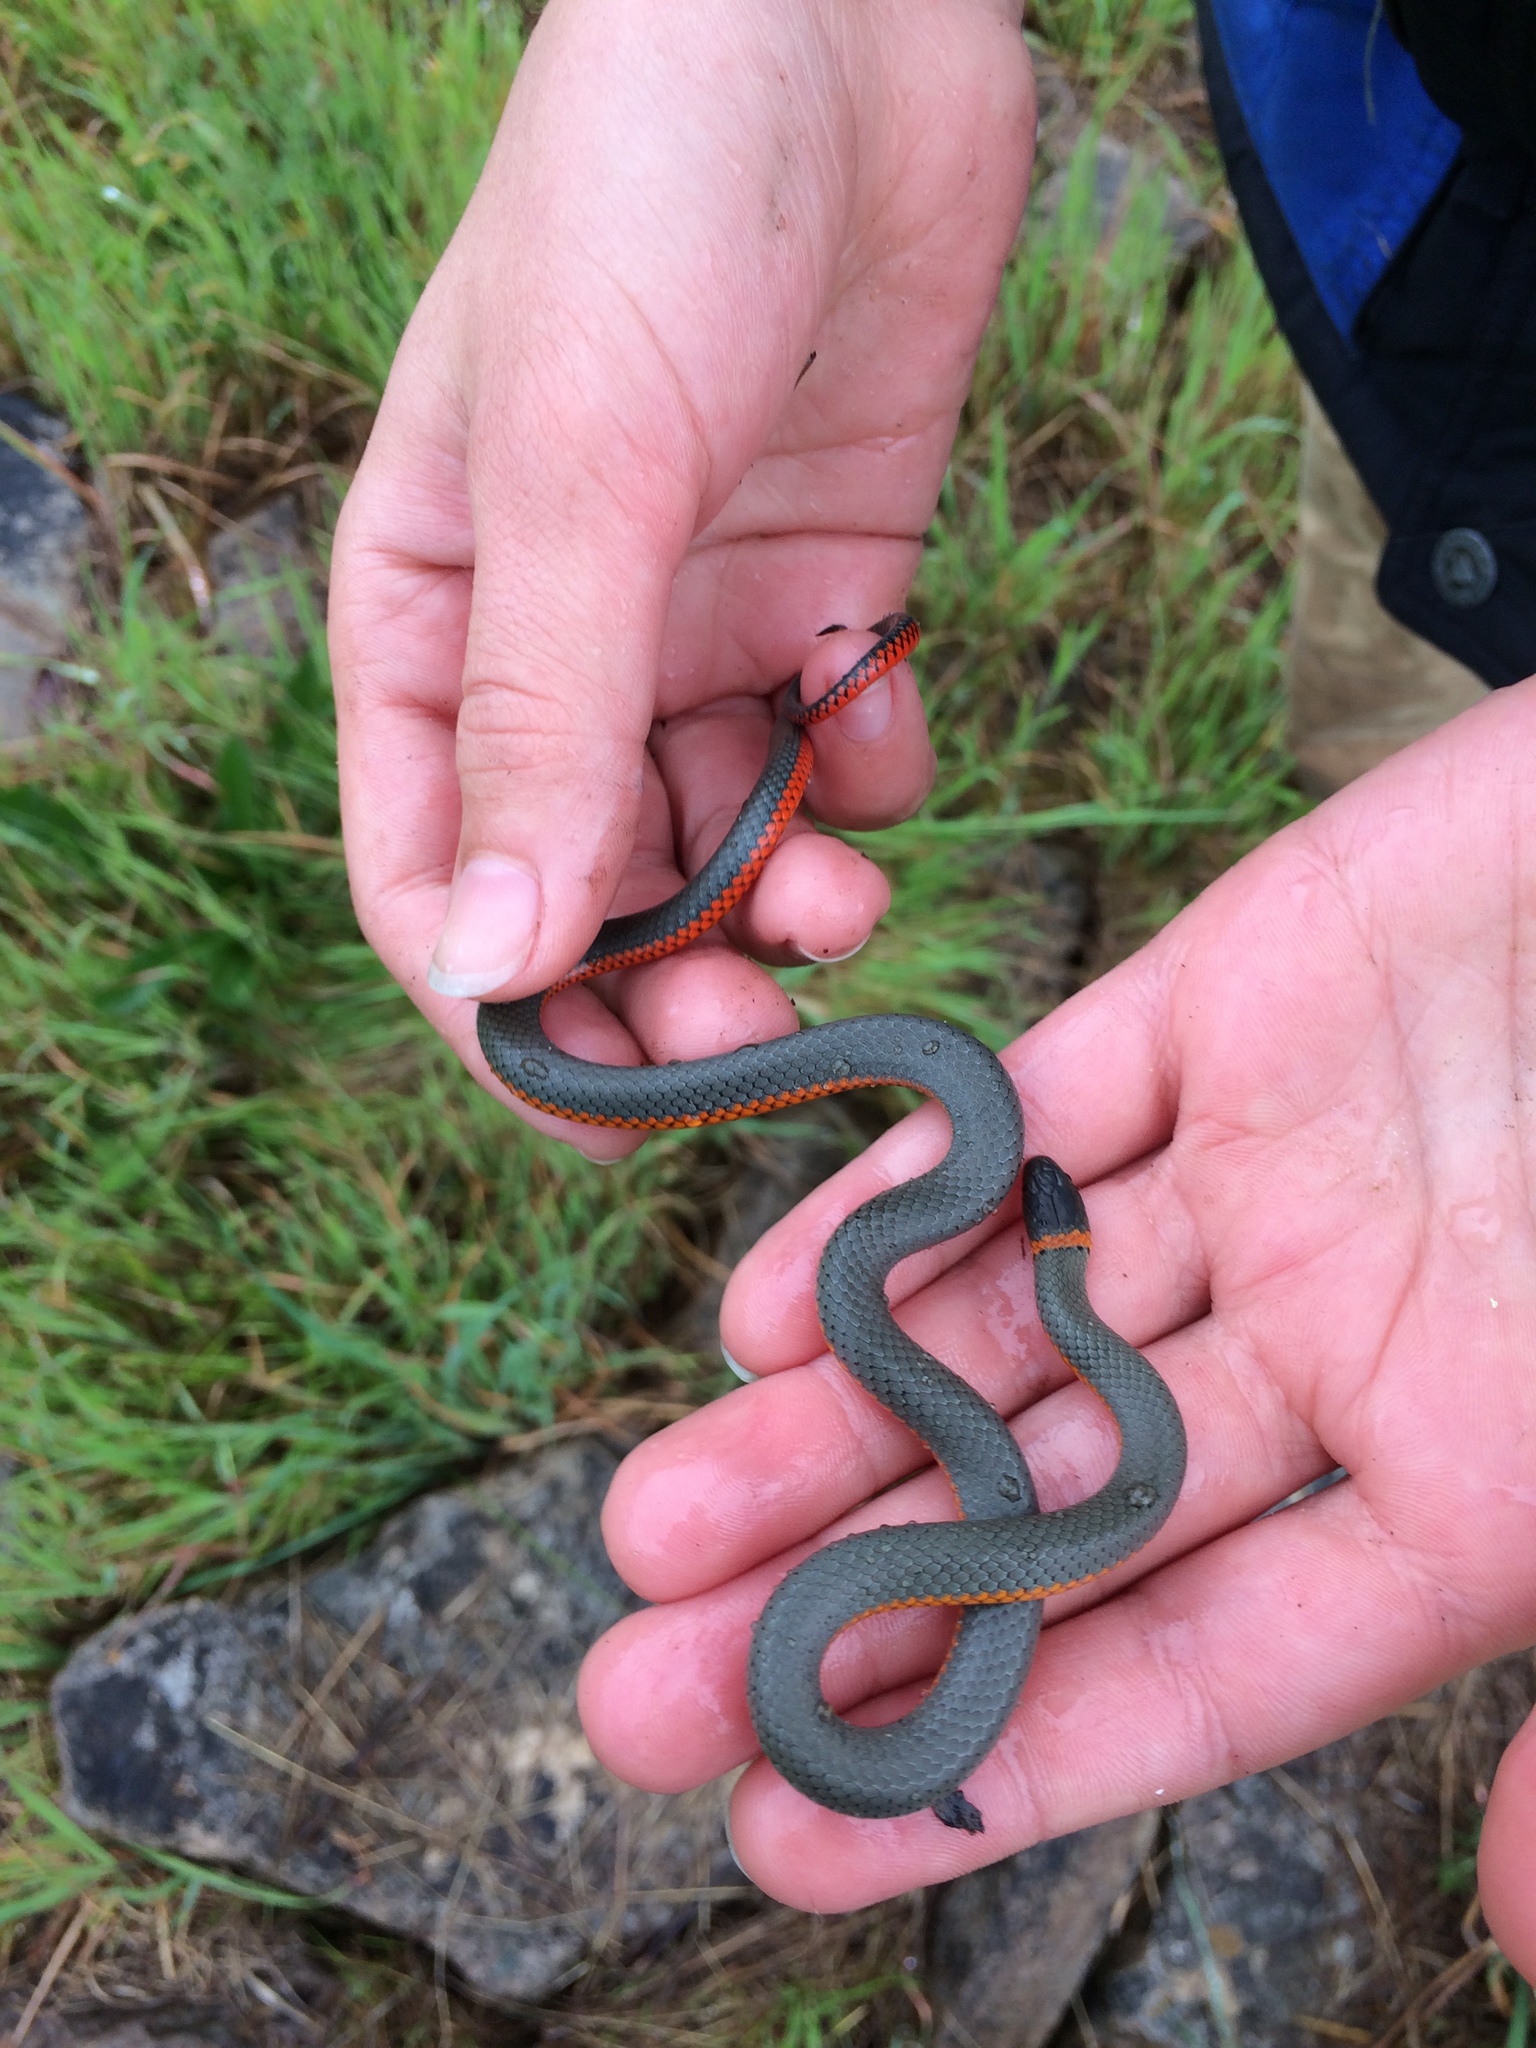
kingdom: Animalia
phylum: Chordata
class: Squamata
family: Colubridae
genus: Diadophis
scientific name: Diadophis punctatus
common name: Ringneck snake
